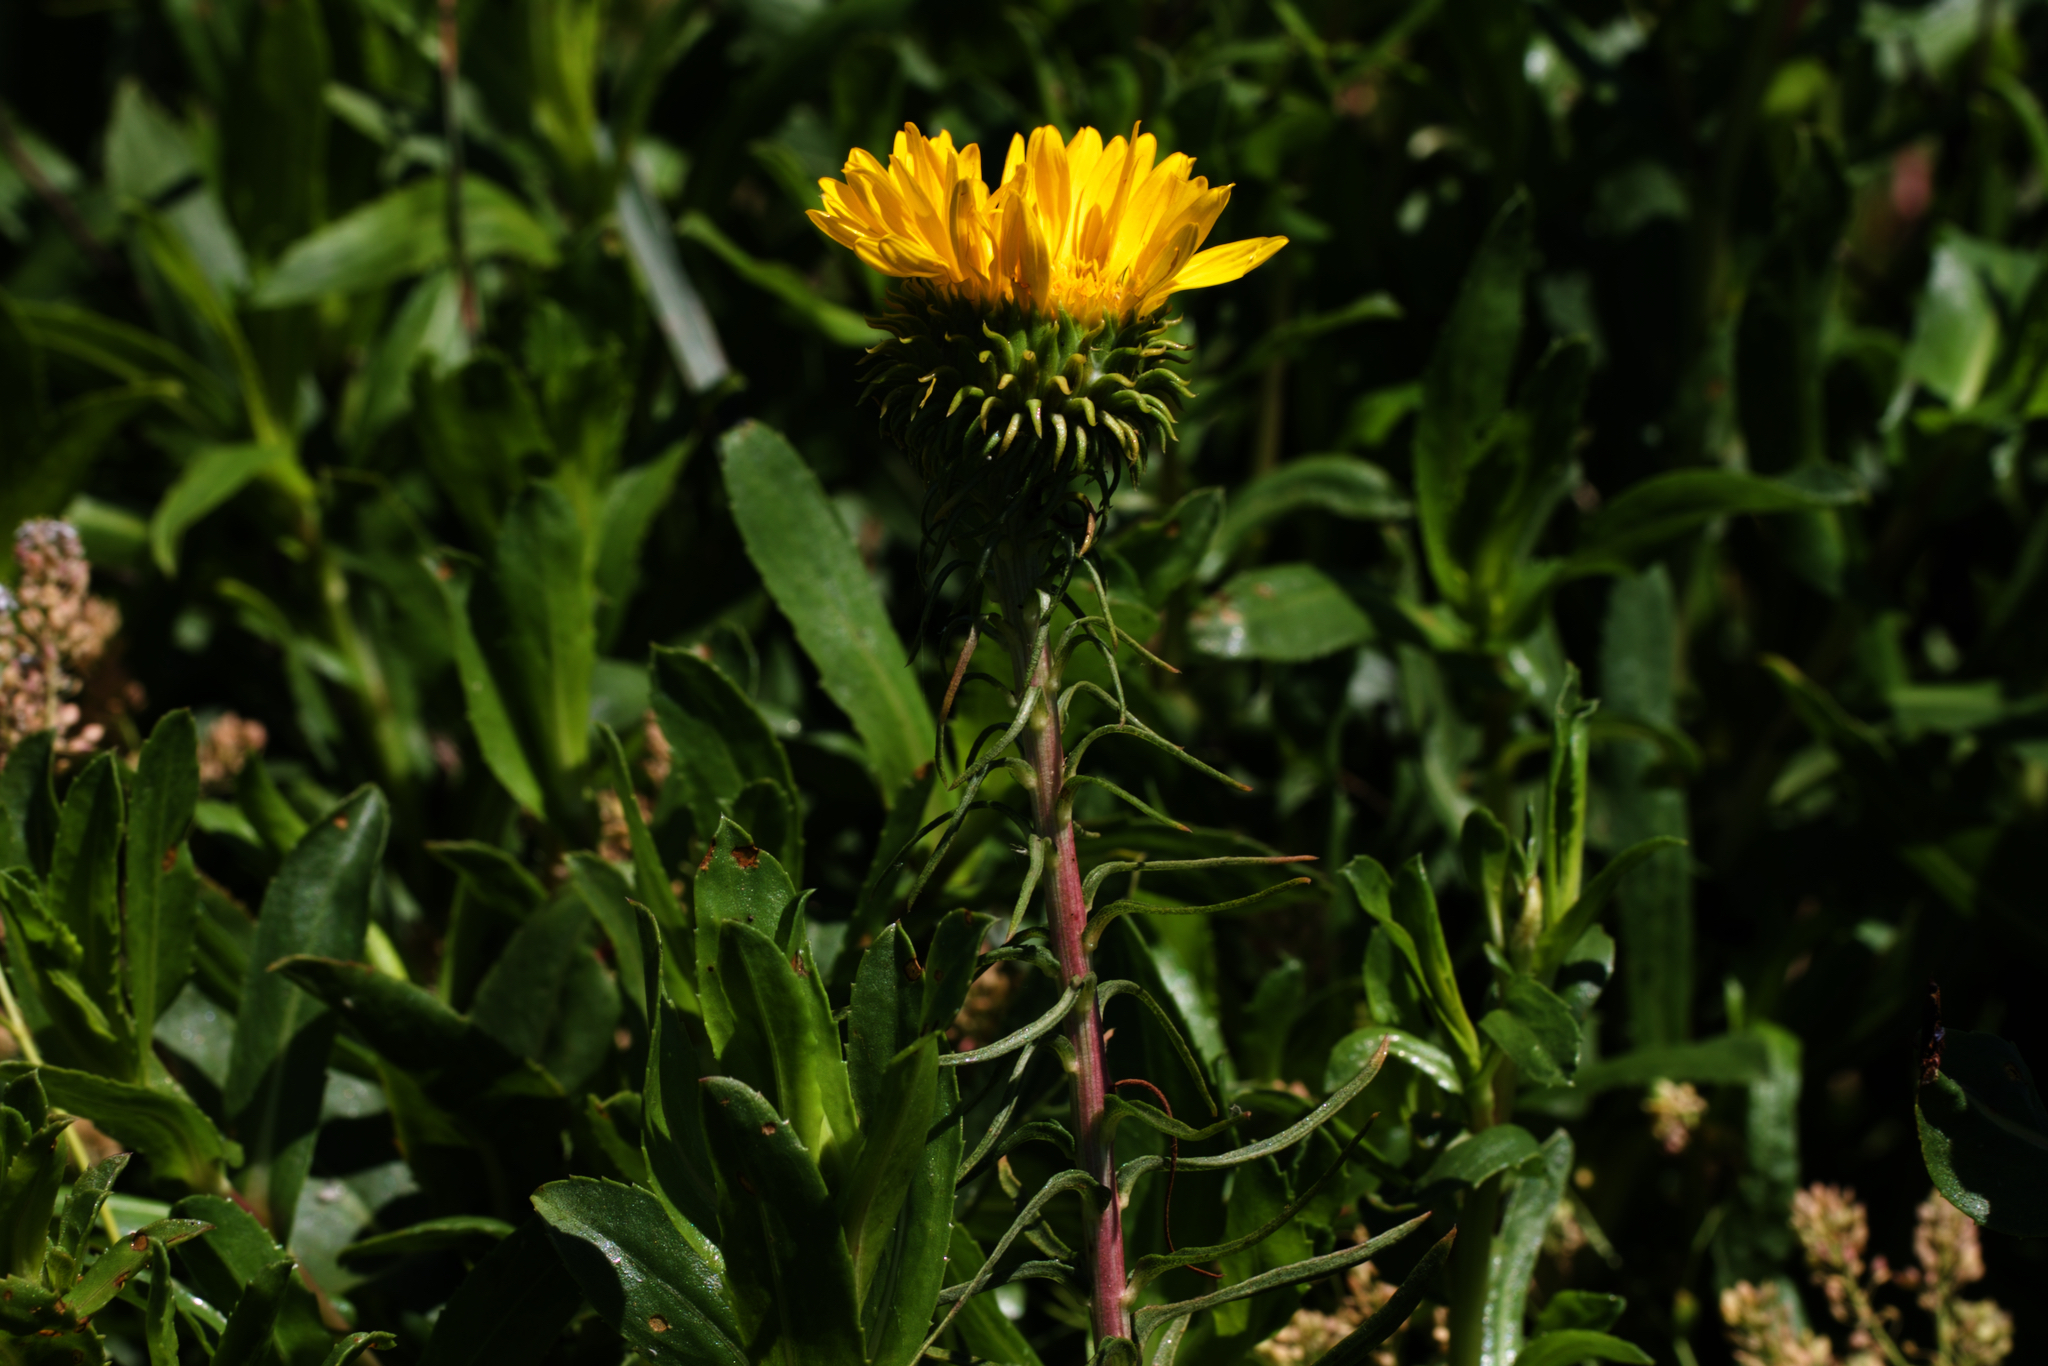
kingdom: Plantae
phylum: Tracheophyta
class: Magnoliopsida
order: Asterales
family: Asteraceae
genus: Grindelia
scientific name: Grindelia hirsutula
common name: Hairy gumweed
